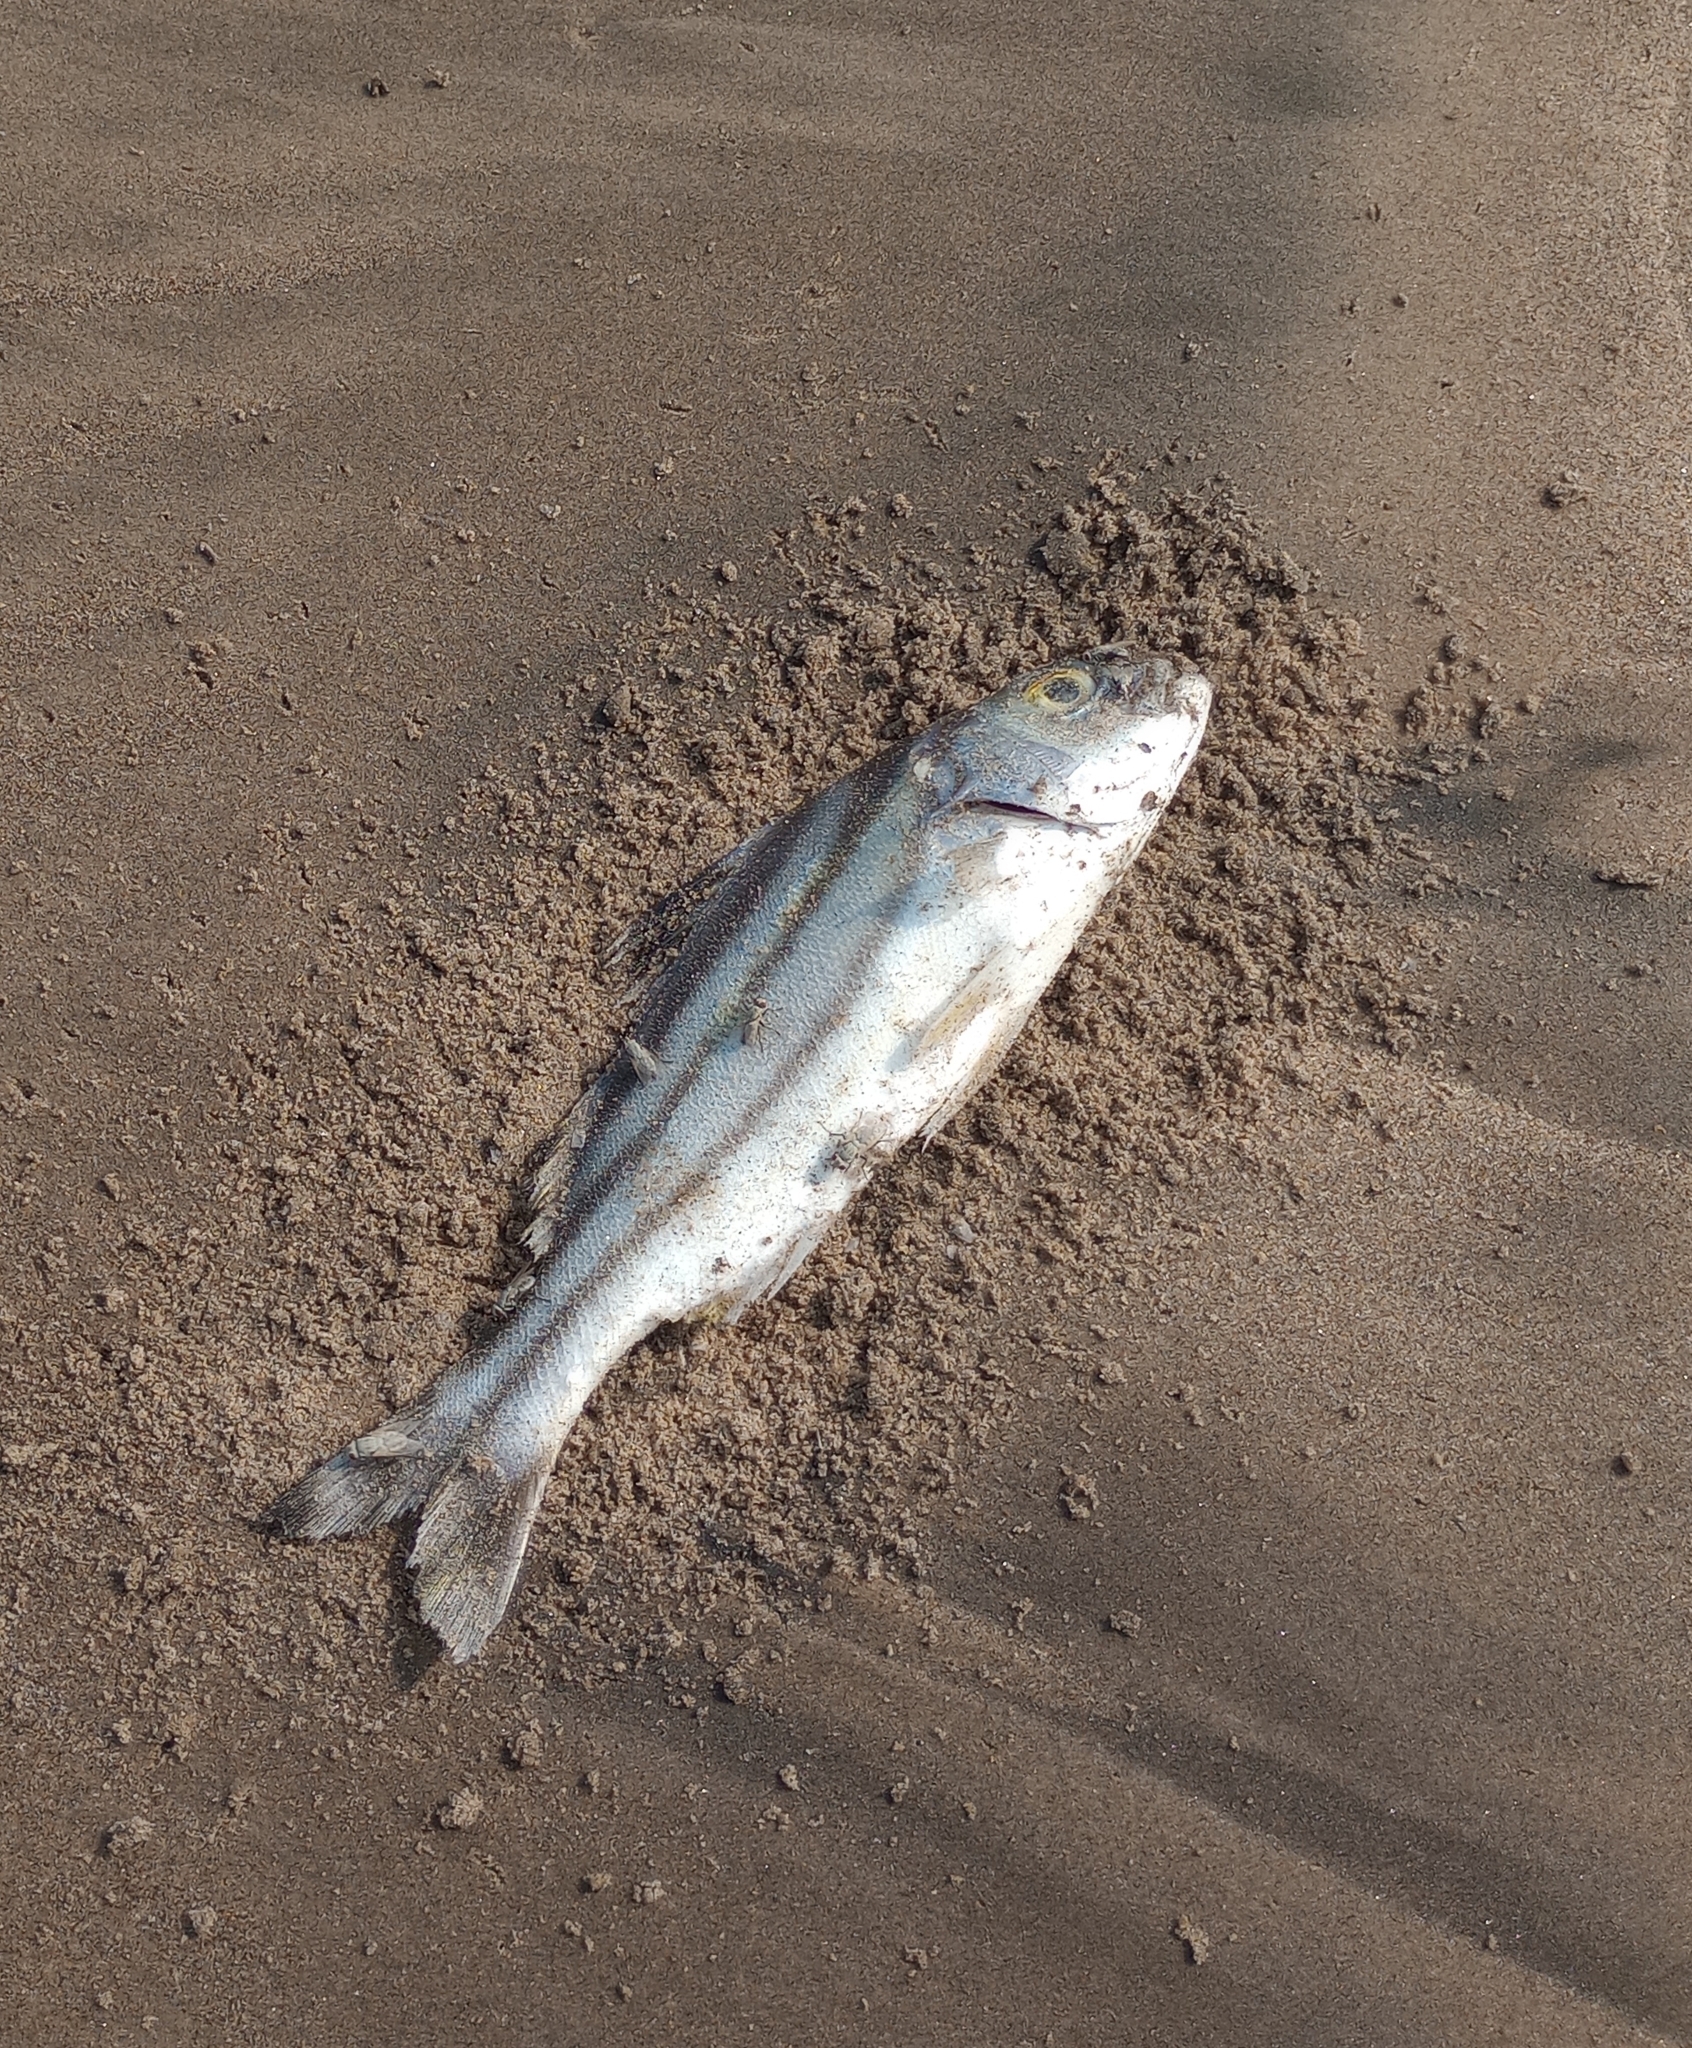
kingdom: Animalia
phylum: Chordata
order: Perciformes
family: Terapontidae
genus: Terapon
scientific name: Terapon jarbua
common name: Jarbua terapon
